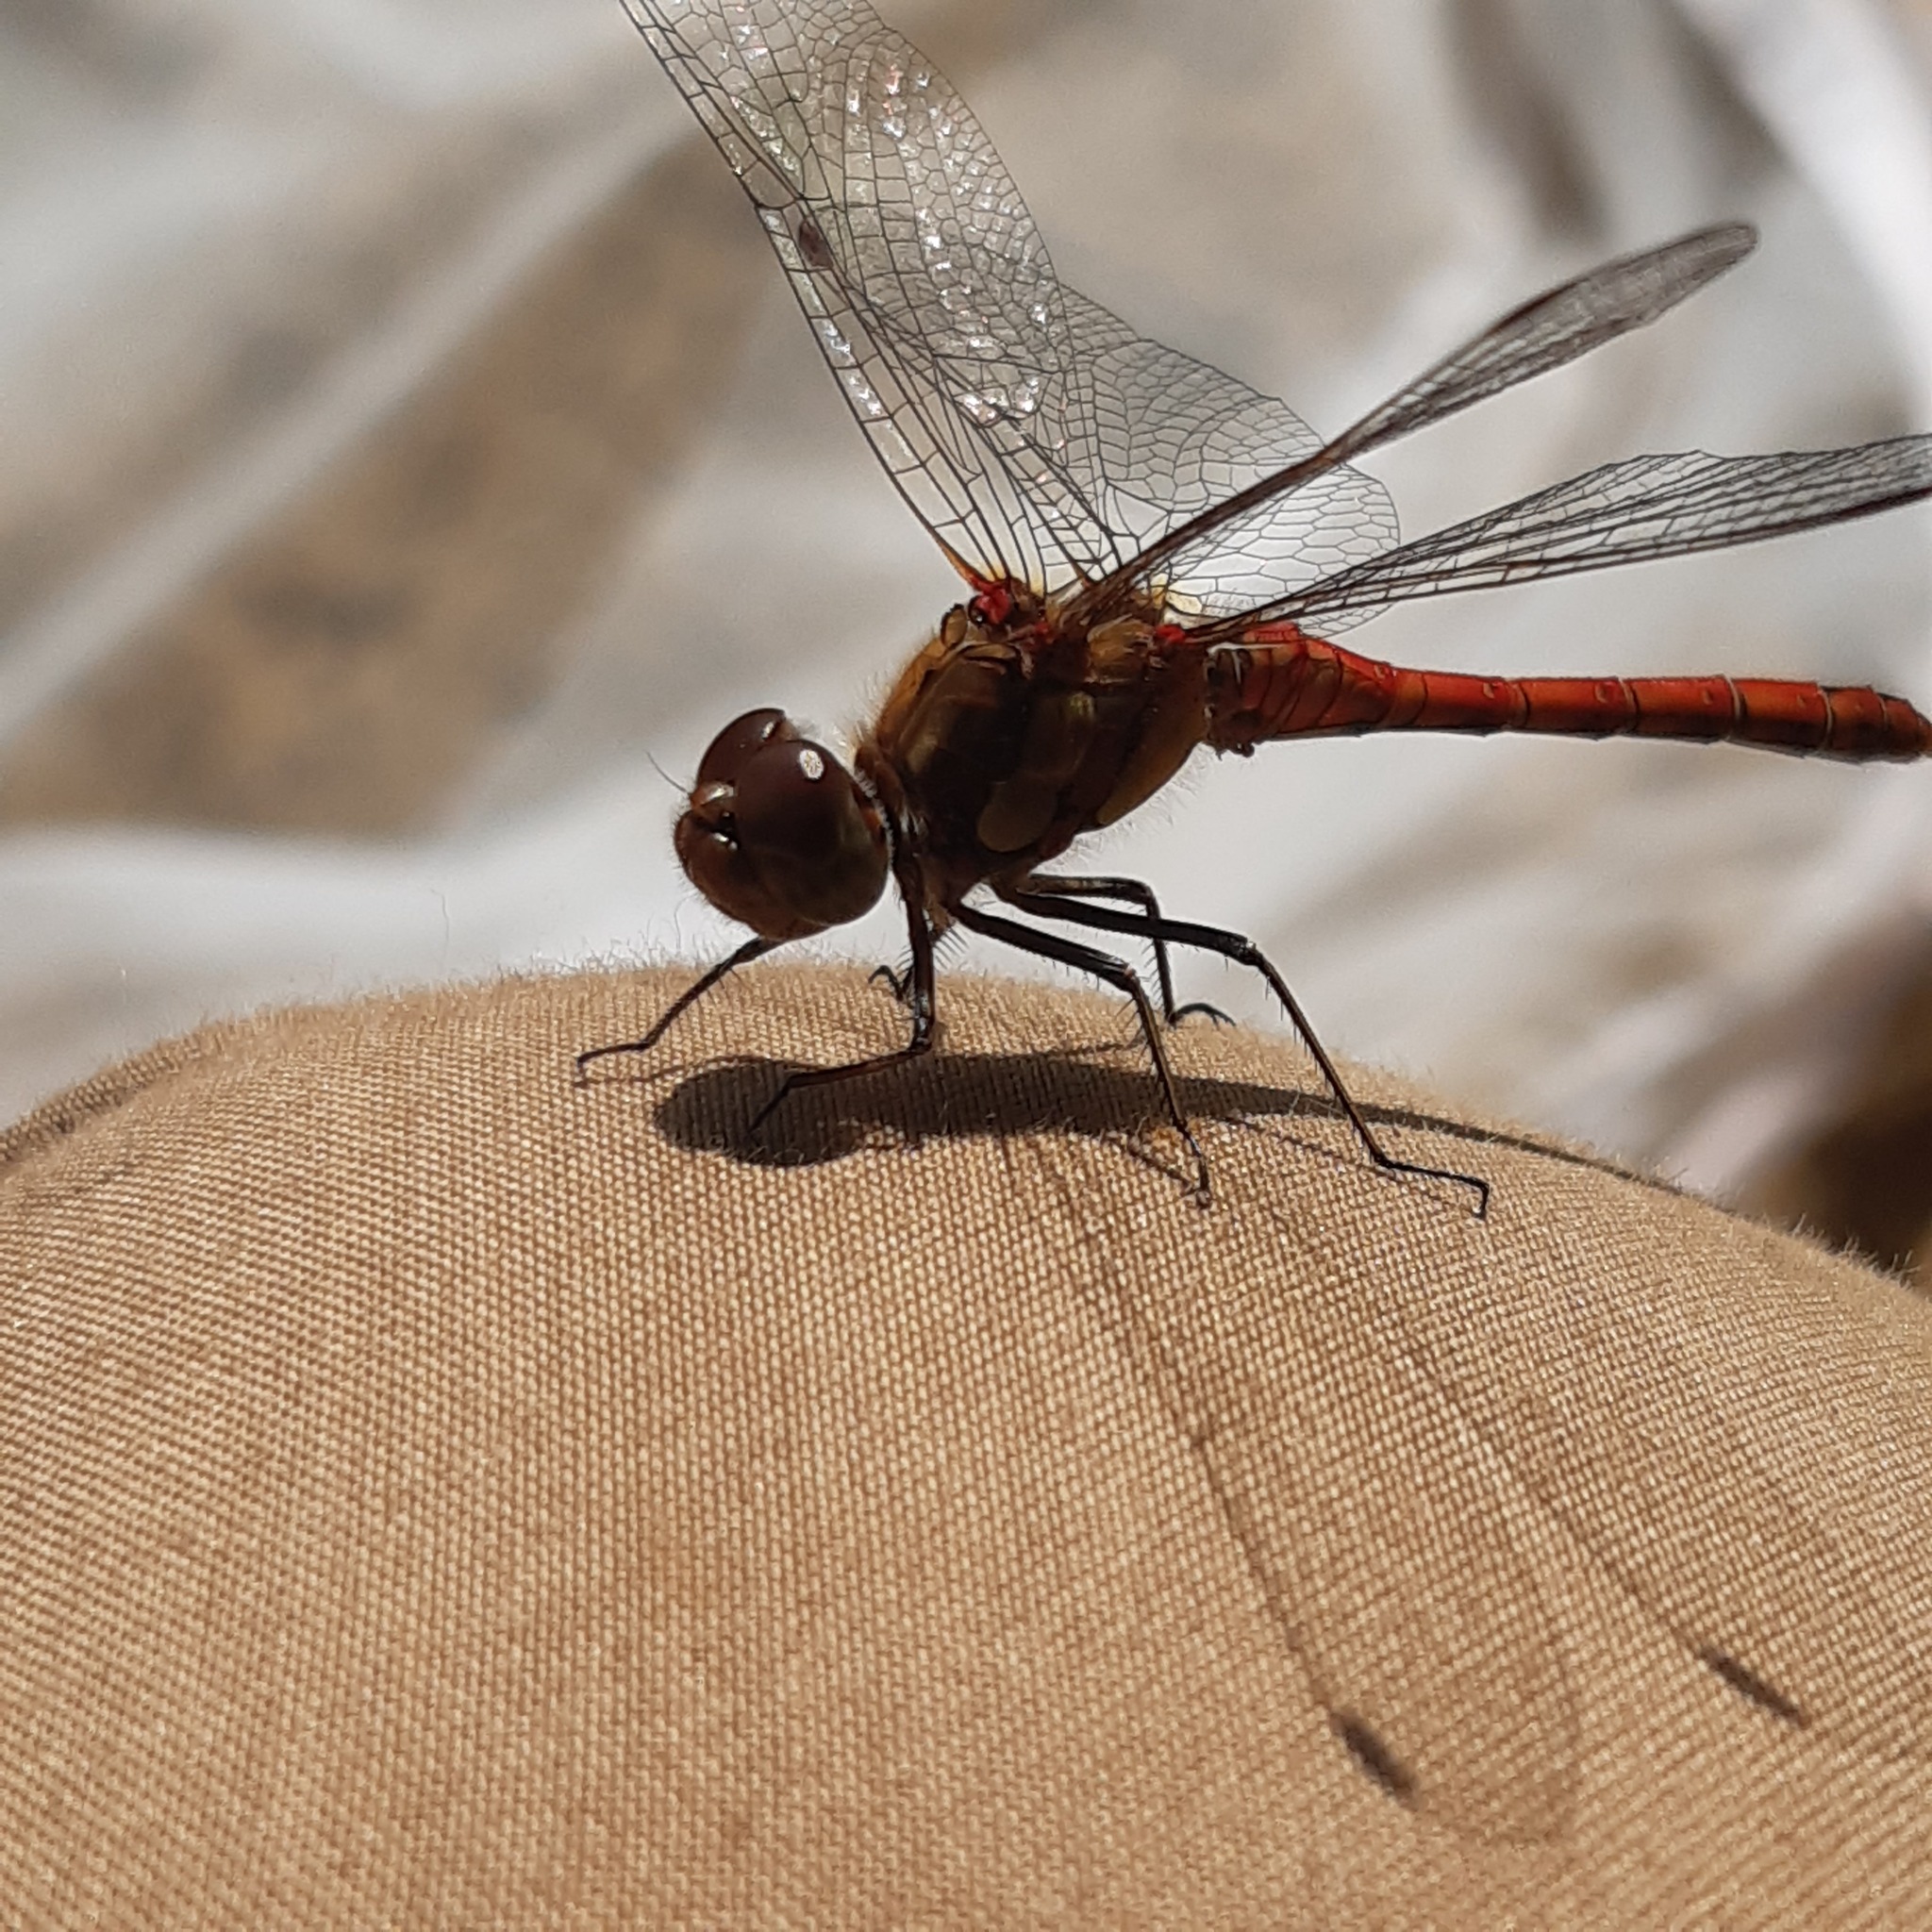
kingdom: Animalia
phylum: Arthropoda
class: Insecta
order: Odonata
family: Libellulidae
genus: Sympetrum
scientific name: Sympetrum striolatum
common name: Common darter
